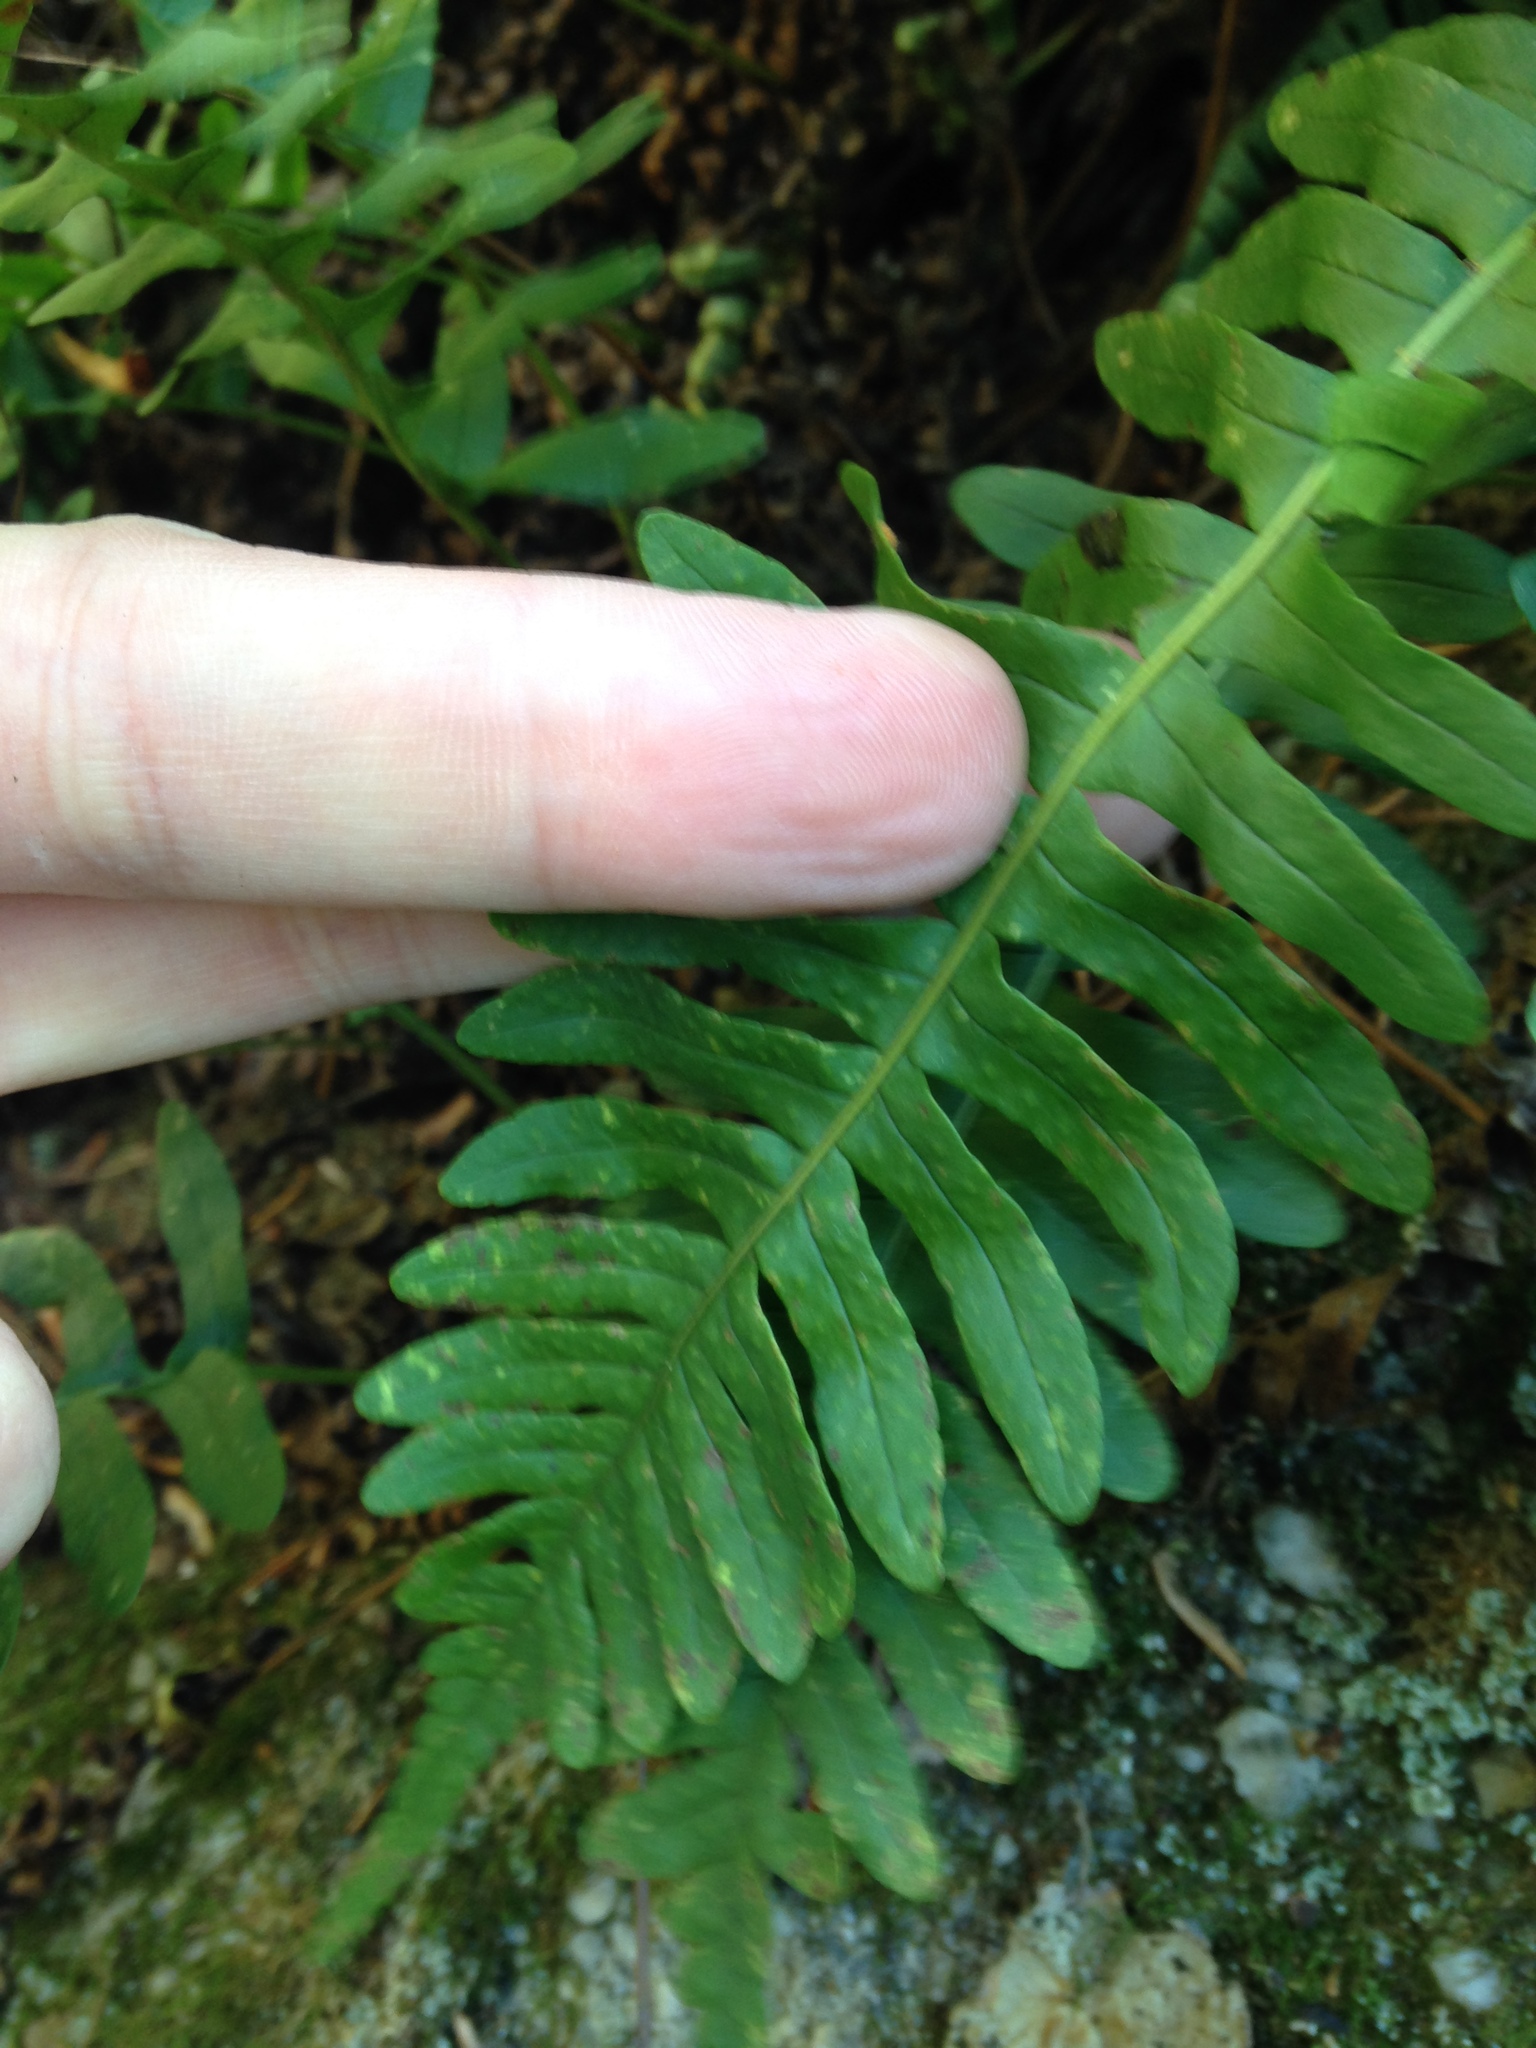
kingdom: Plantae
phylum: Tracheophyta
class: Polypodiopsida
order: Polypodiales
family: Polypodiaceae
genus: Polypodium
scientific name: Polypodium virginianum
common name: American wall fern
